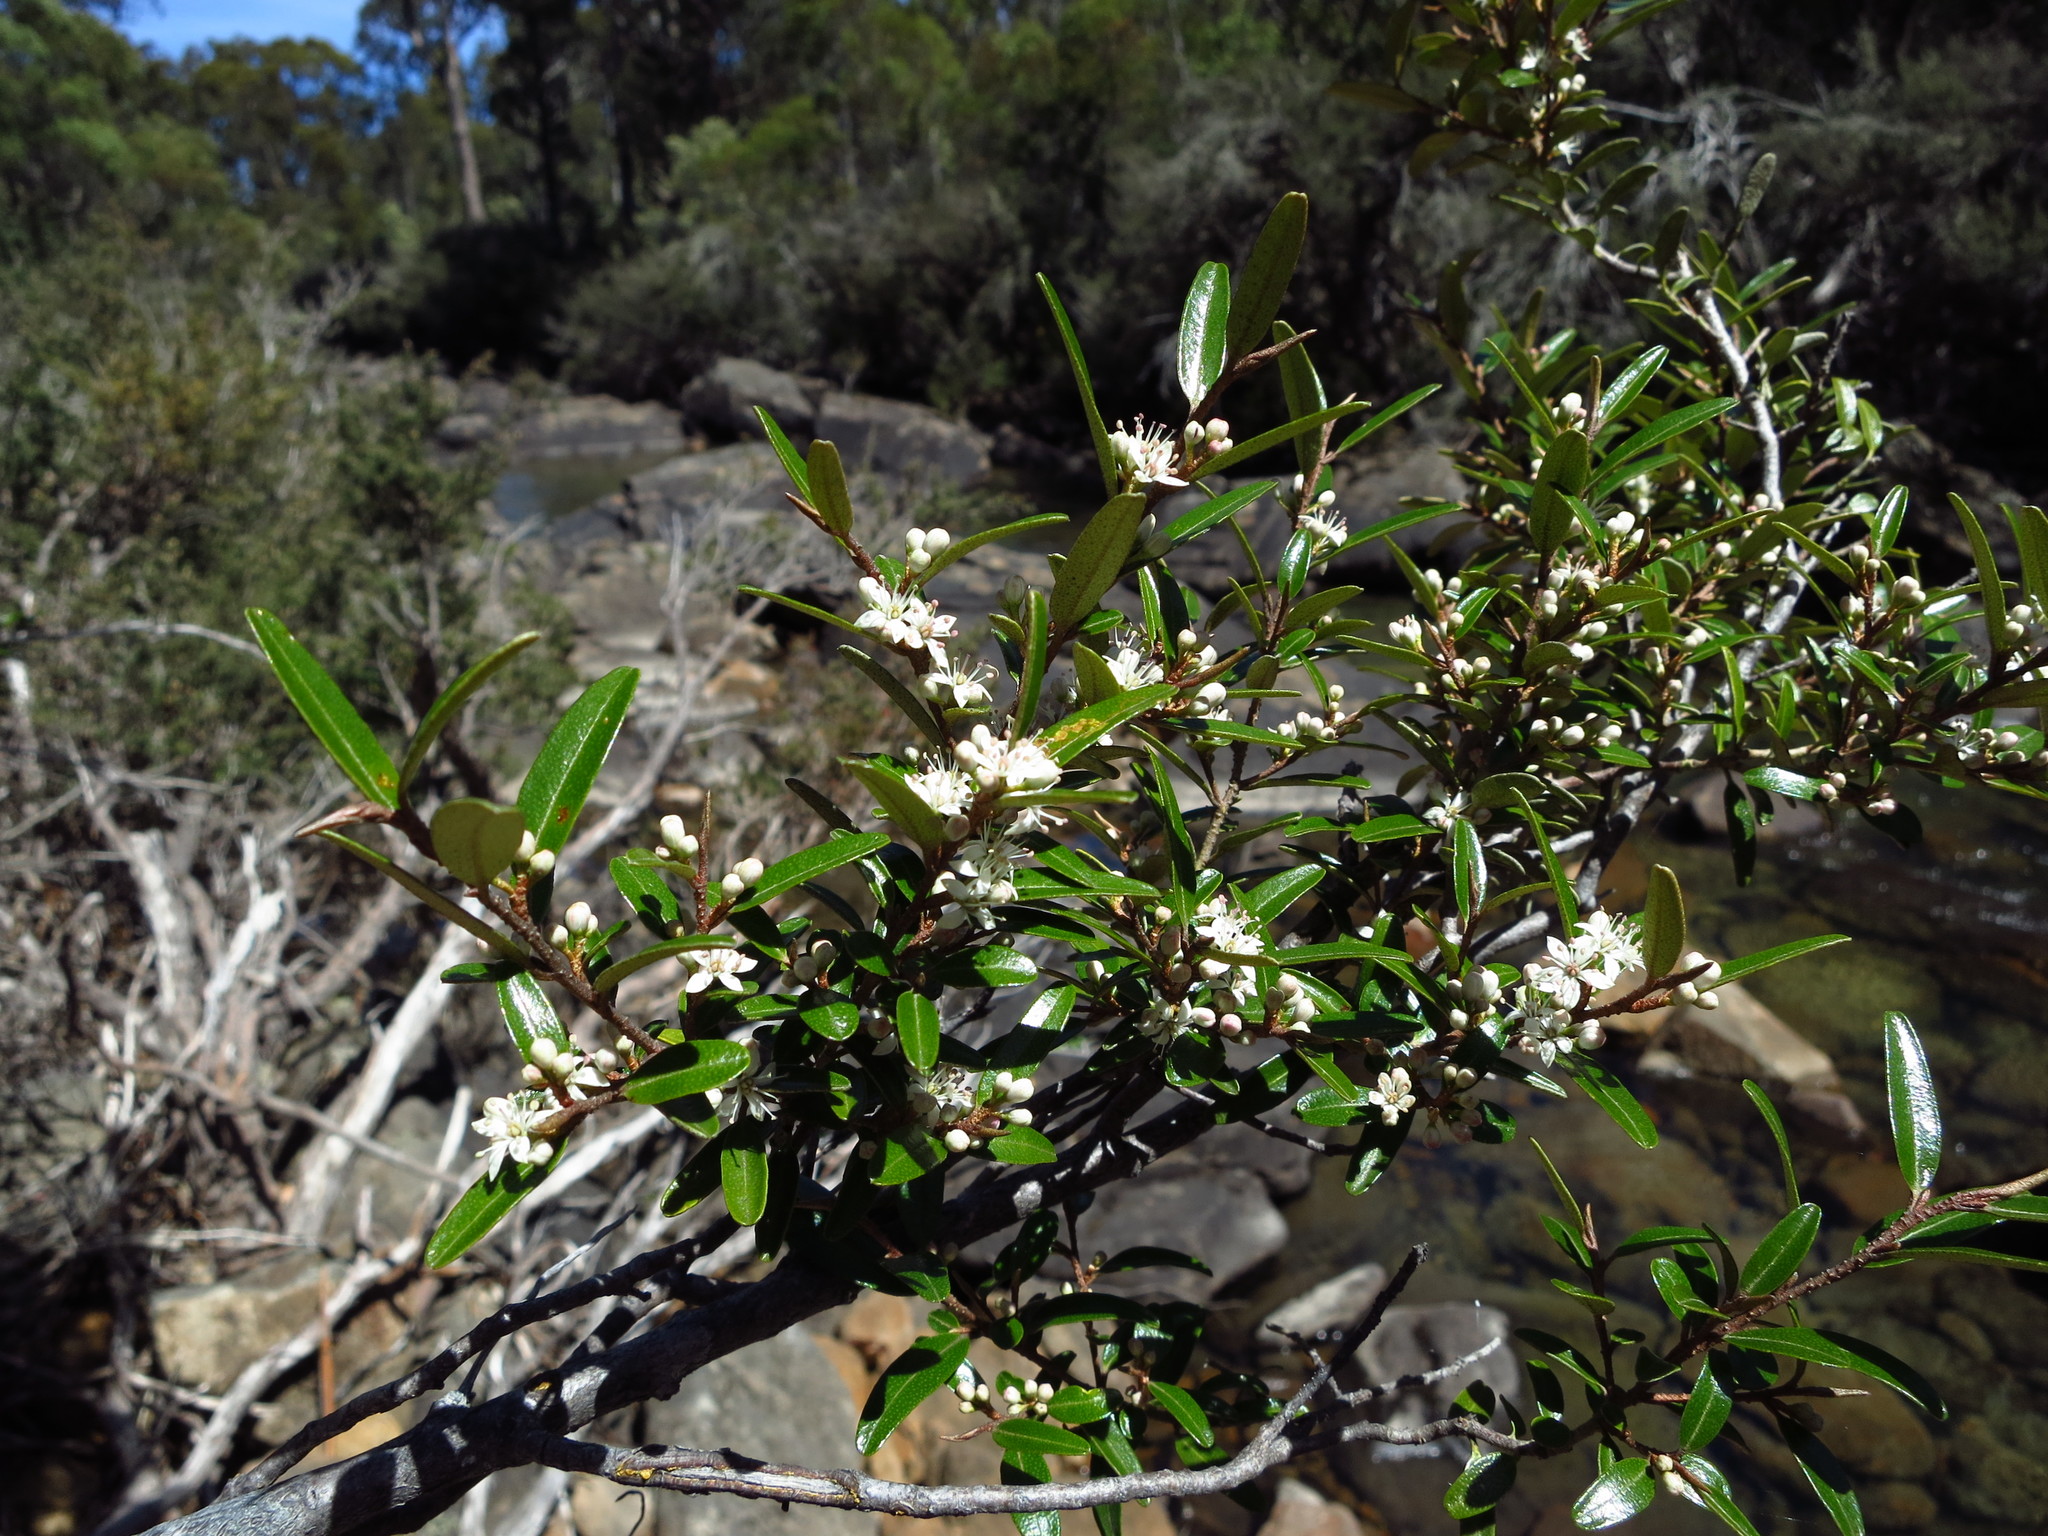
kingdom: Plantae
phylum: Tracheophyta
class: Magnoliopsida
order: Sapindales
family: Rutaceae
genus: Nematolepis
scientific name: Nematolepis squamea
